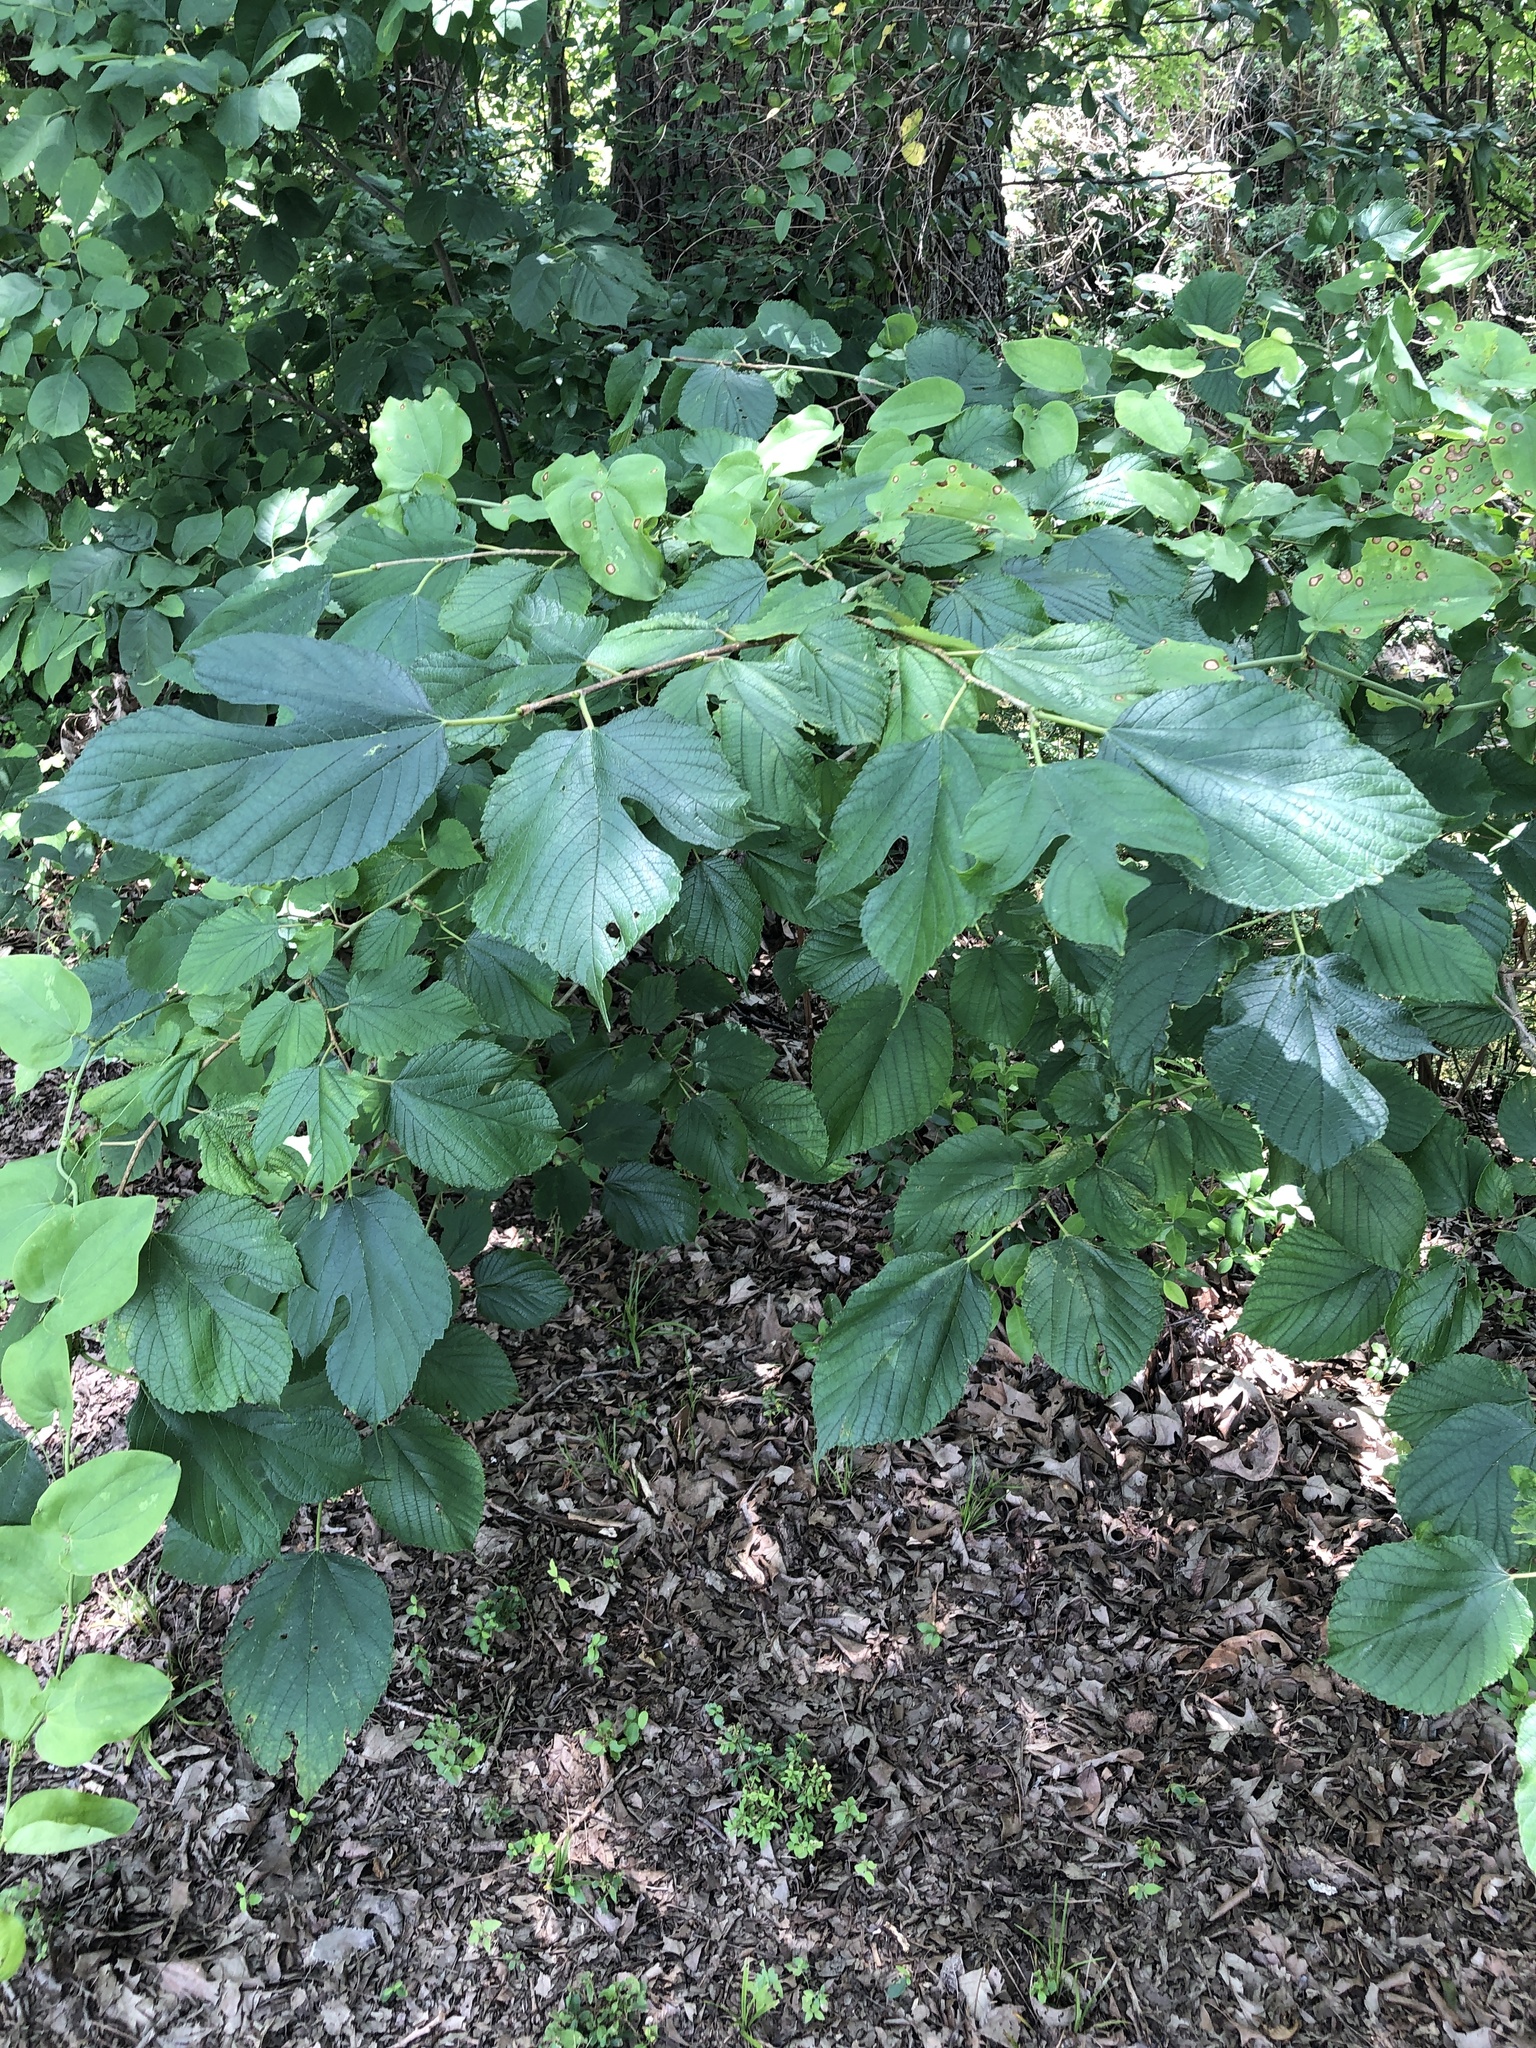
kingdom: Plantae
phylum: Tracheophyta
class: Magnoliopsida
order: Rosales
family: Moraceae
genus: Morus
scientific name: Morus rubra
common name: Red mulberry
